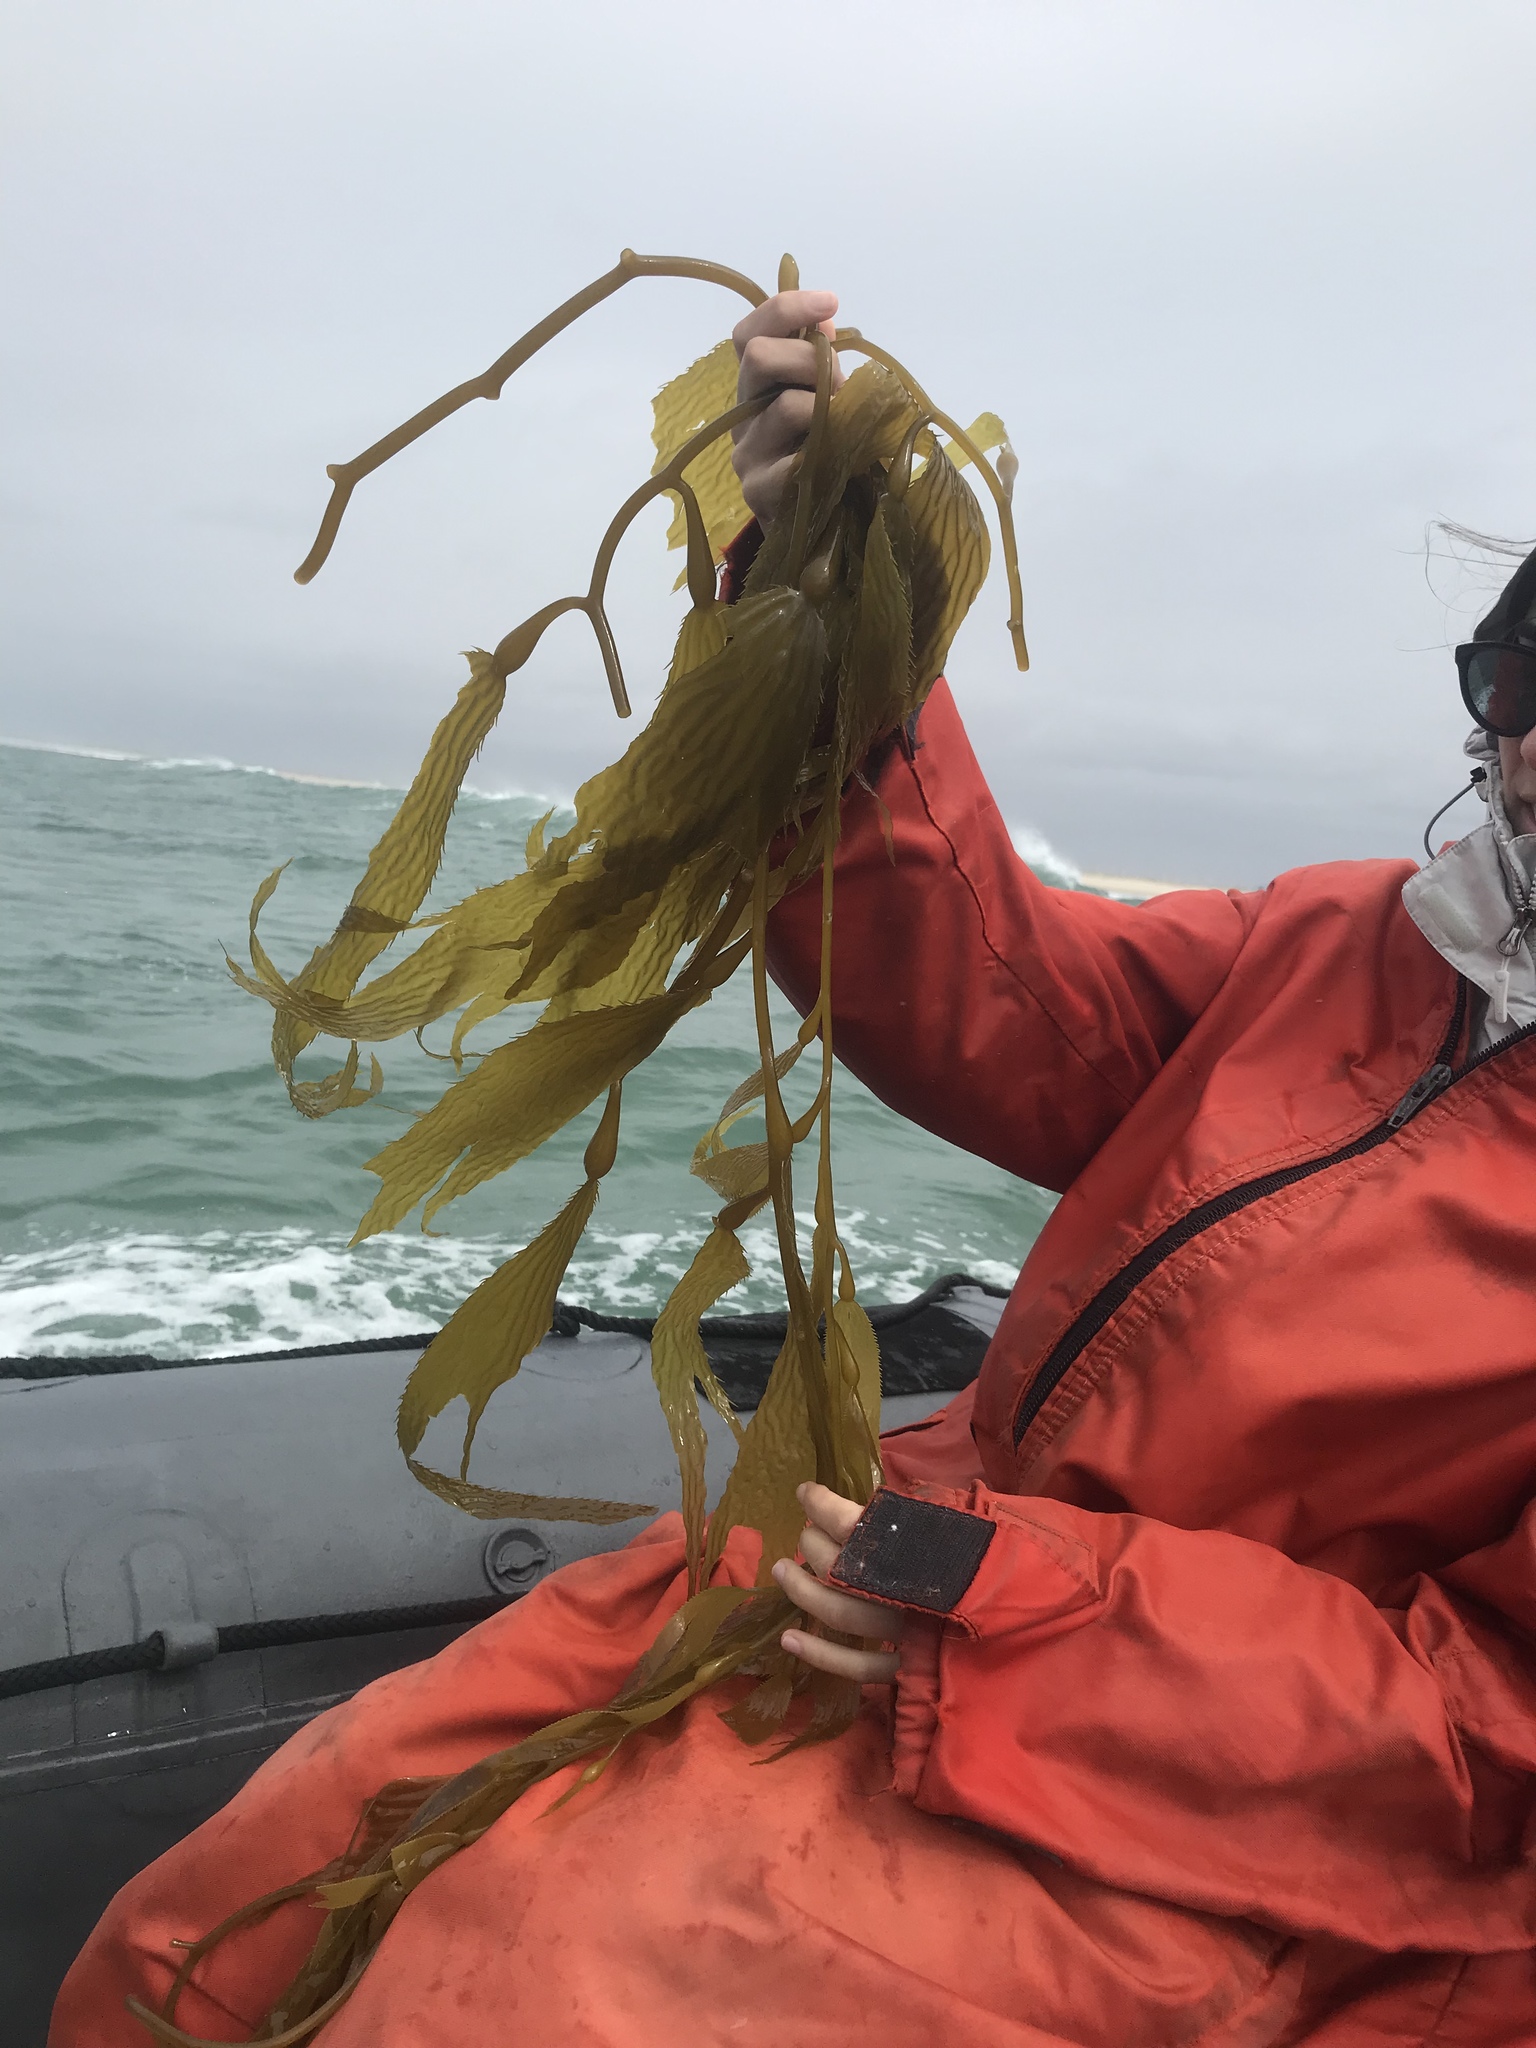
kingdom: Chromista
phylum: Ochrophyta
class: Phaeophyceae
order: Laminariales
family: Laminariaceae
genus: Macrocystis
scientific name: Macrocystis pyrifera
